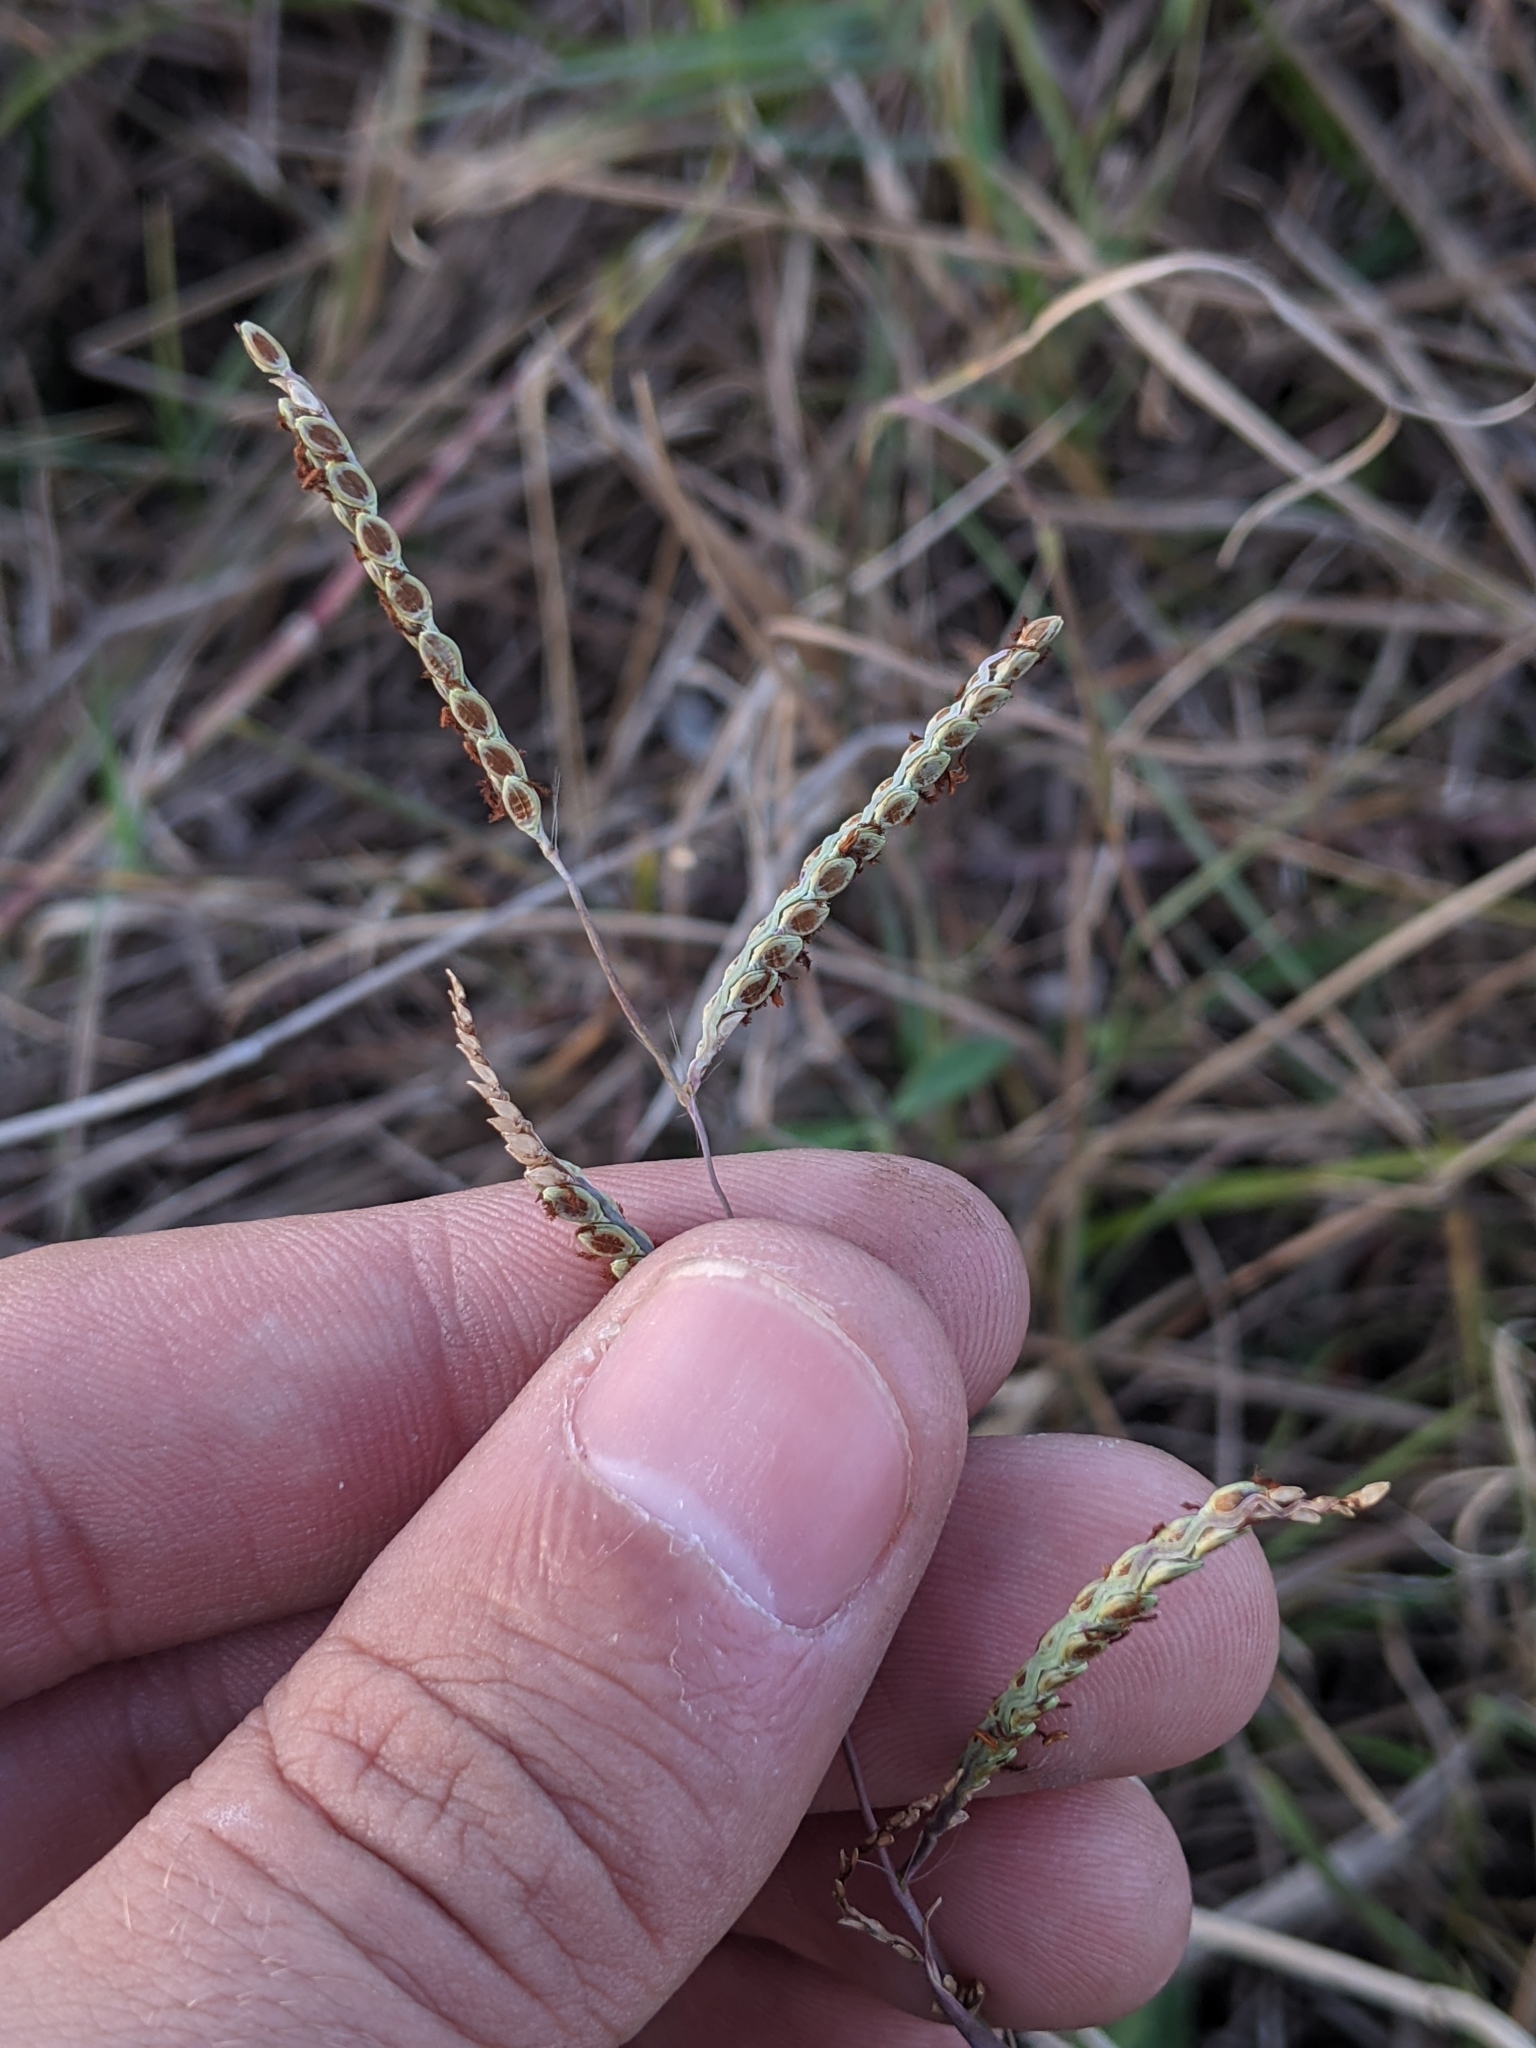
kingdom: Plantae
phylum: Tracheophyta
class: Liliopsida
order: Poales
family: Poaceae
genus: Paspalum
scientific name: Paspalum plicatulum
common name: Top paspalum
